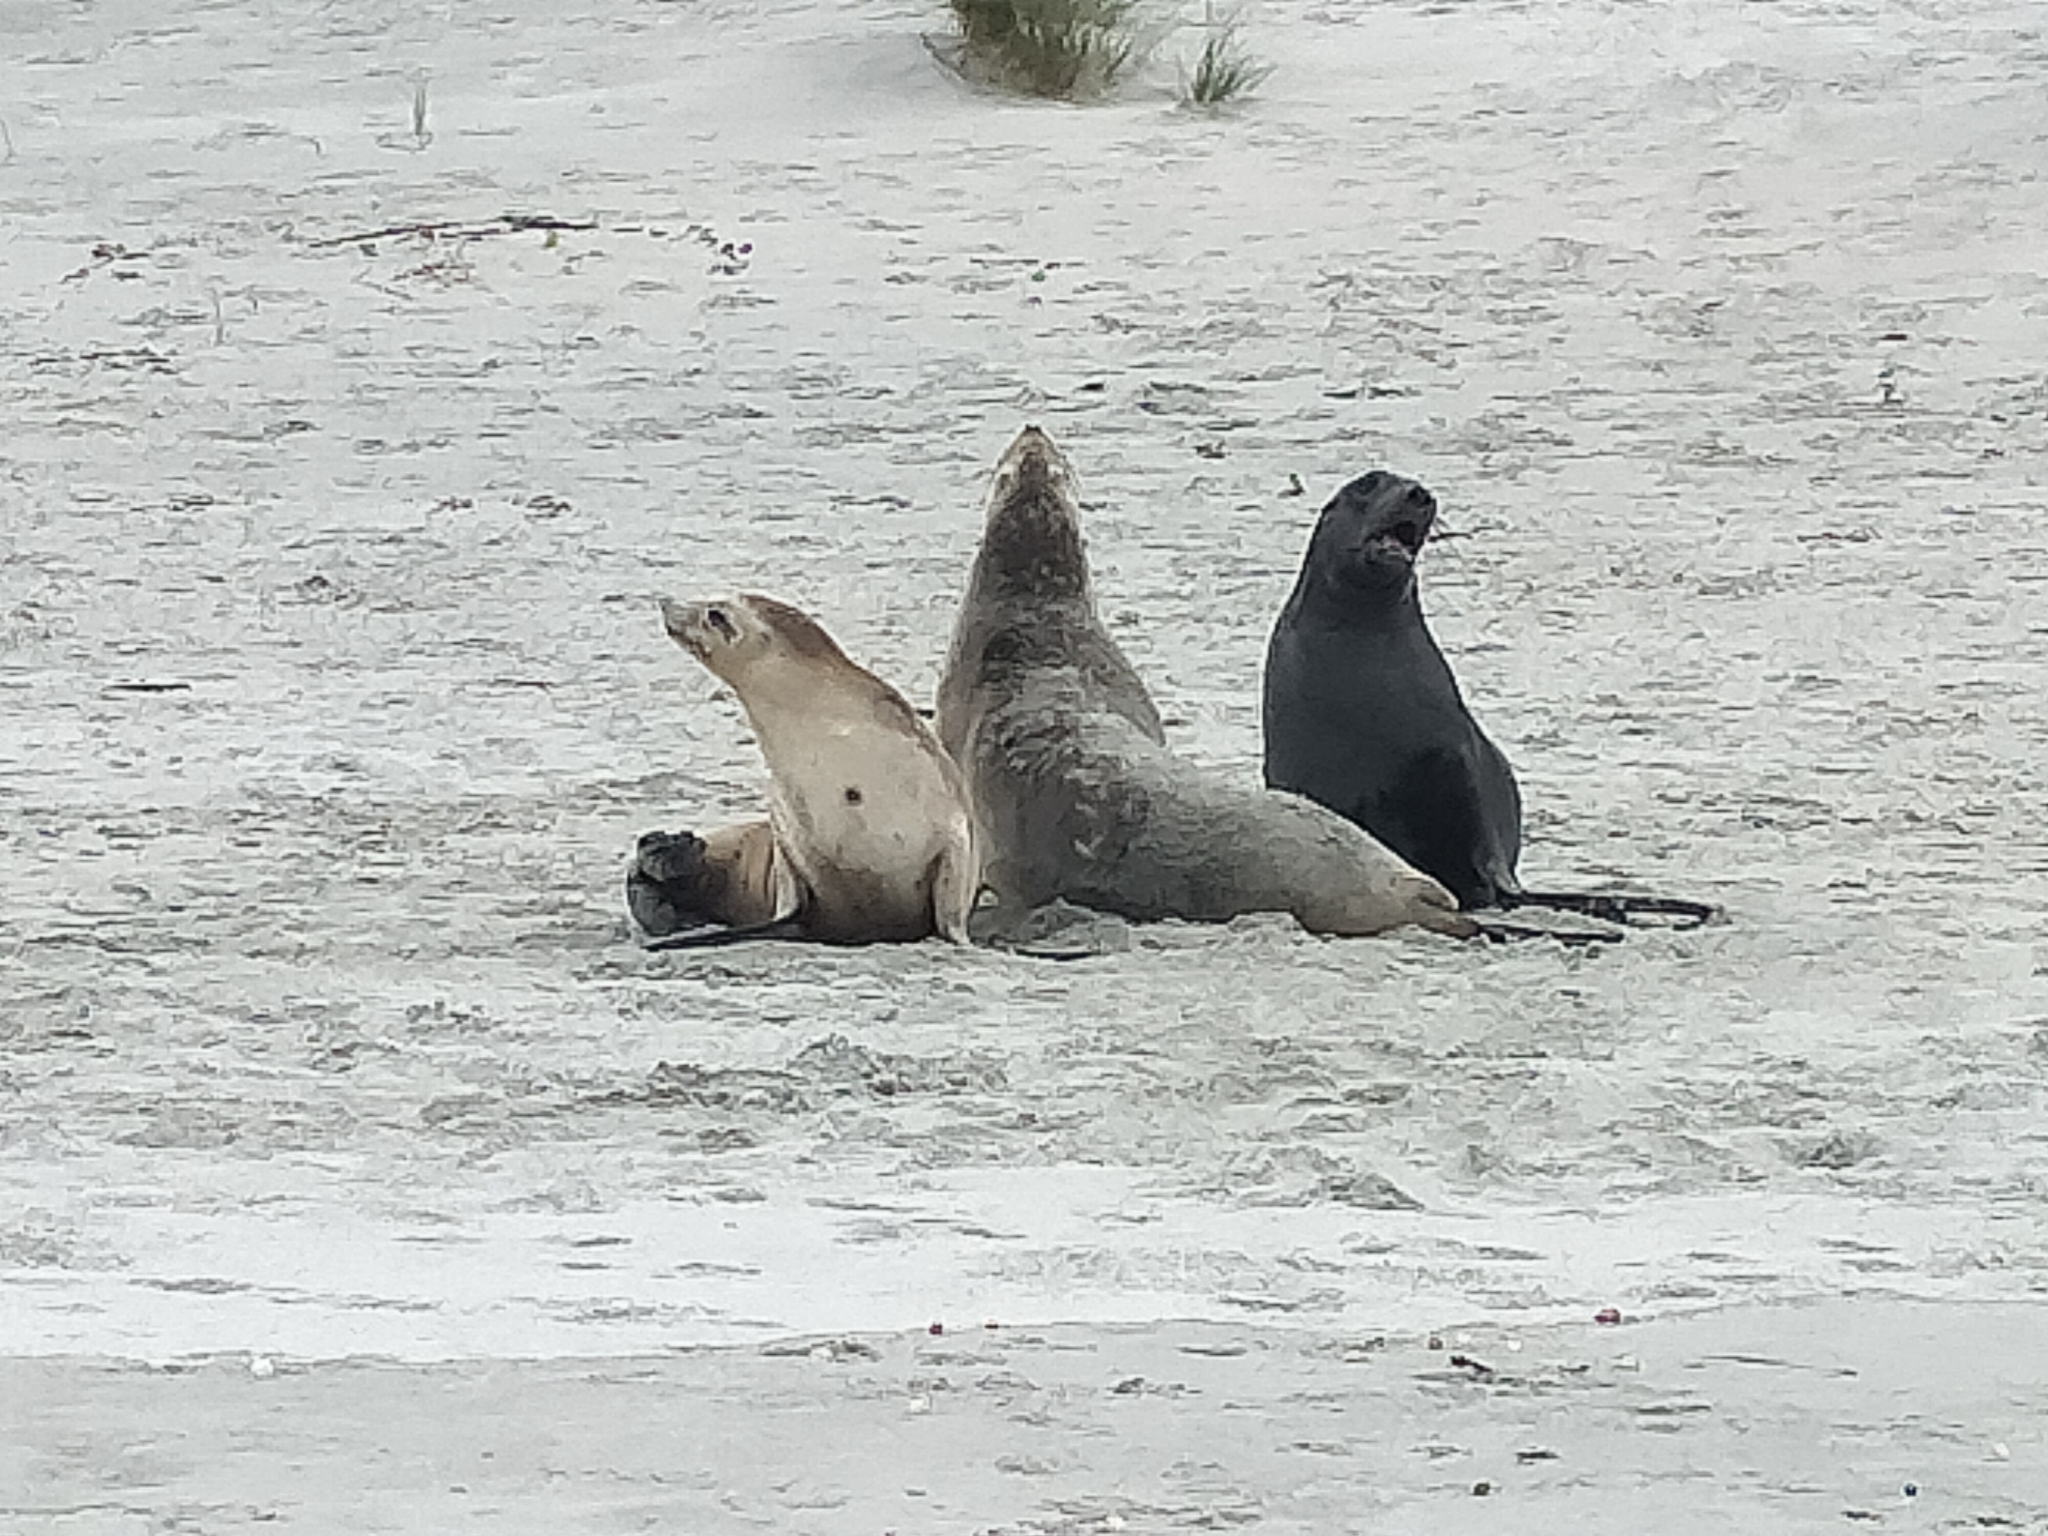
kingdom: Animalia
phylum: Chordata
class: Mammalia
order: Carnivora
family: Otariidae
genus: Phocarctos
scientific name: Phocarctos hookeri
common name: New zealand sea lion
